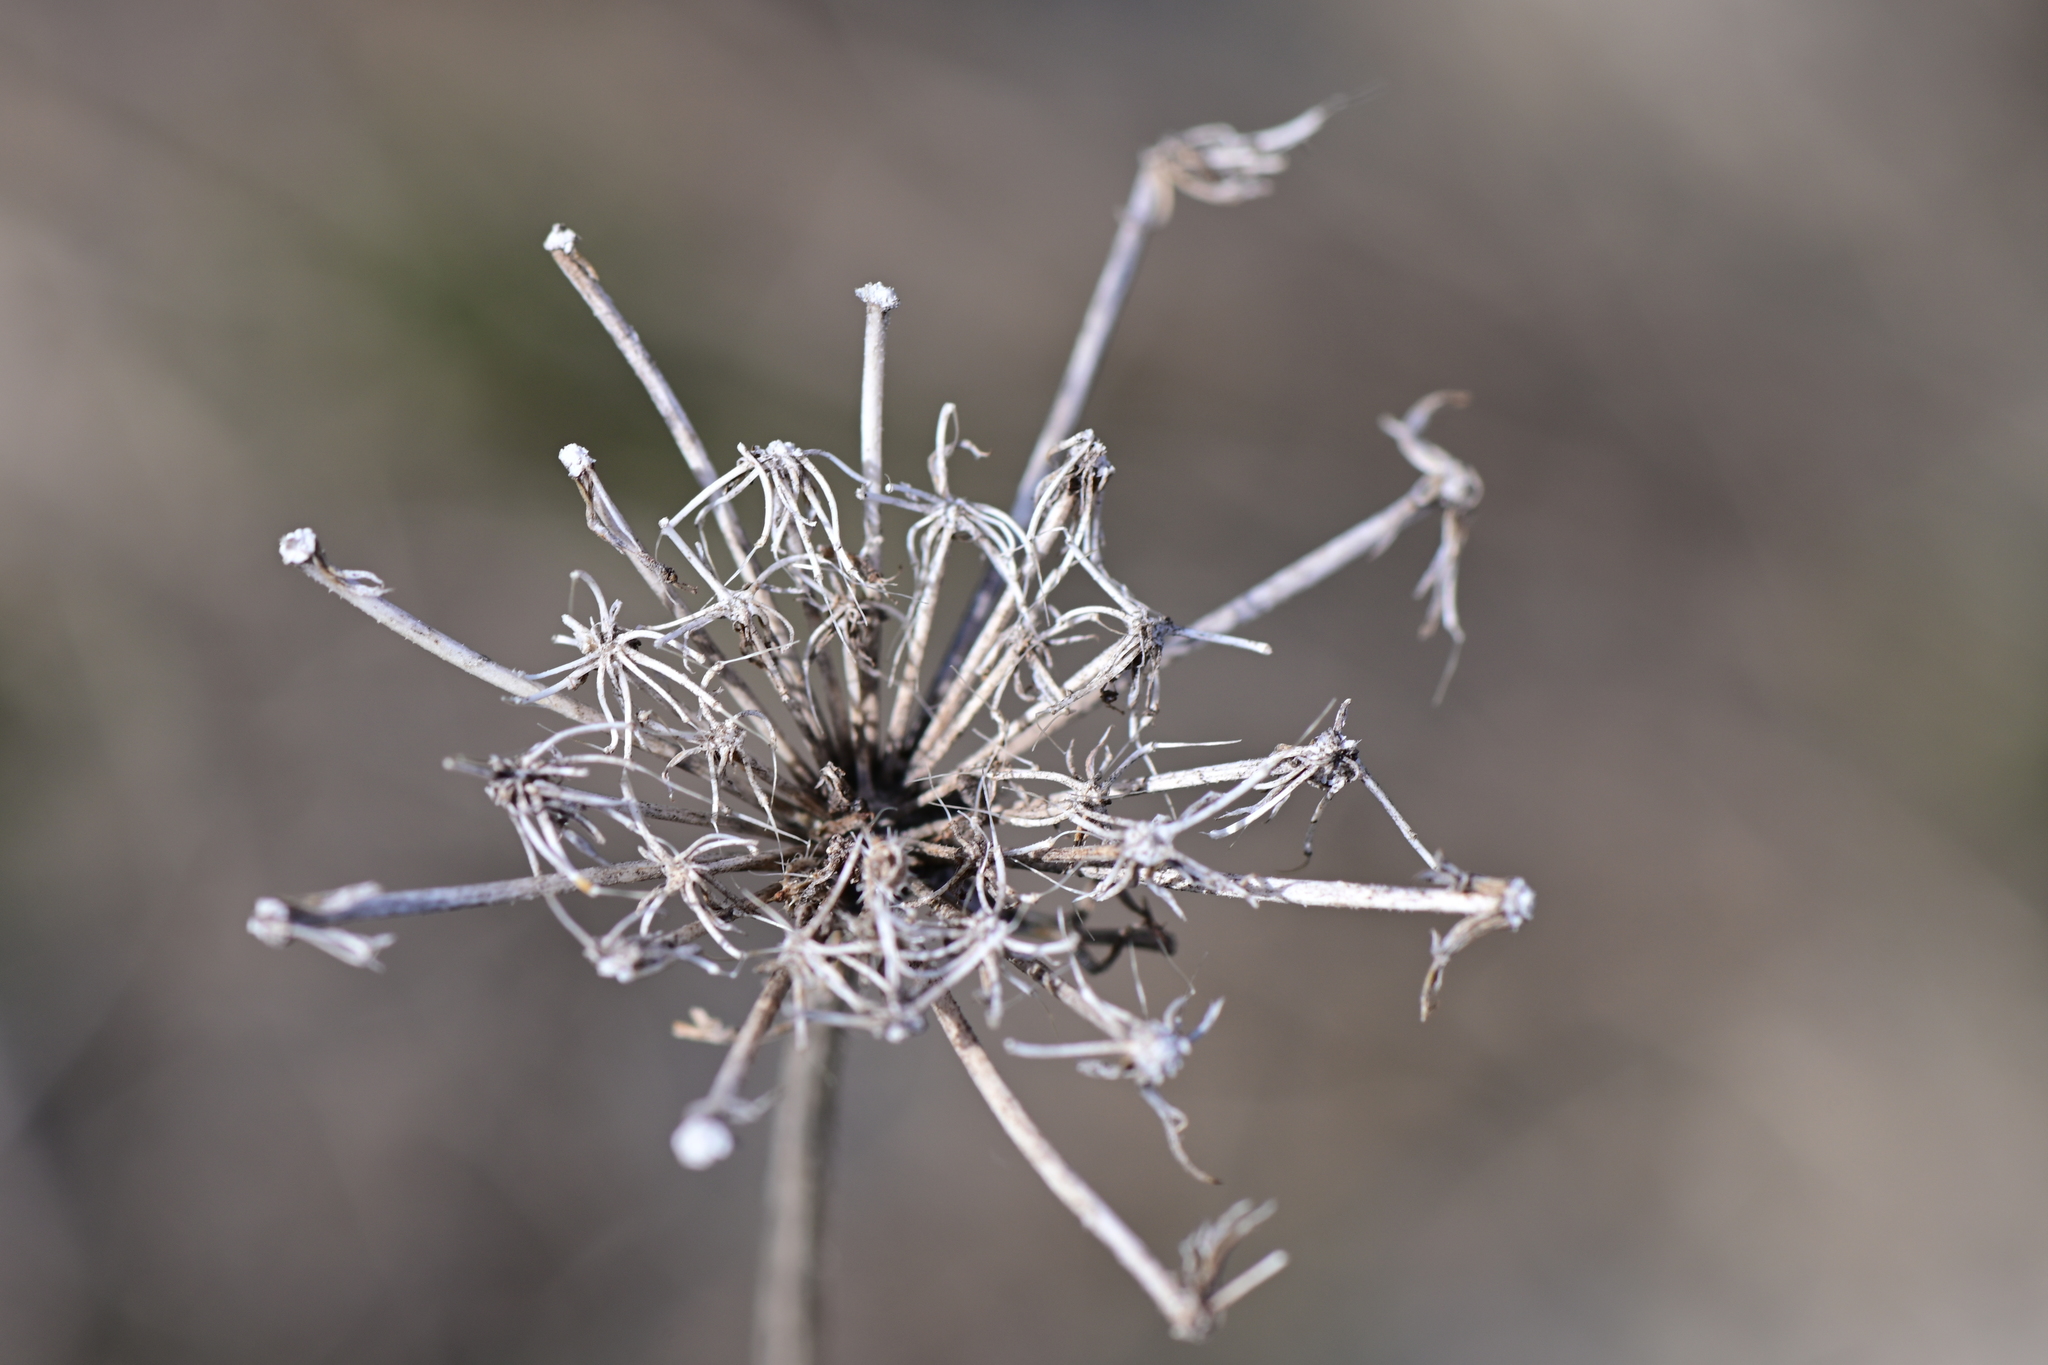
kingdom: Plantae
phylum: Tracheophyta
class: Magnoliopsida
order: Apiales
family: Apiaceae
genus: Daucus
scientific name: Daucus carota
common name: Wild carrot
